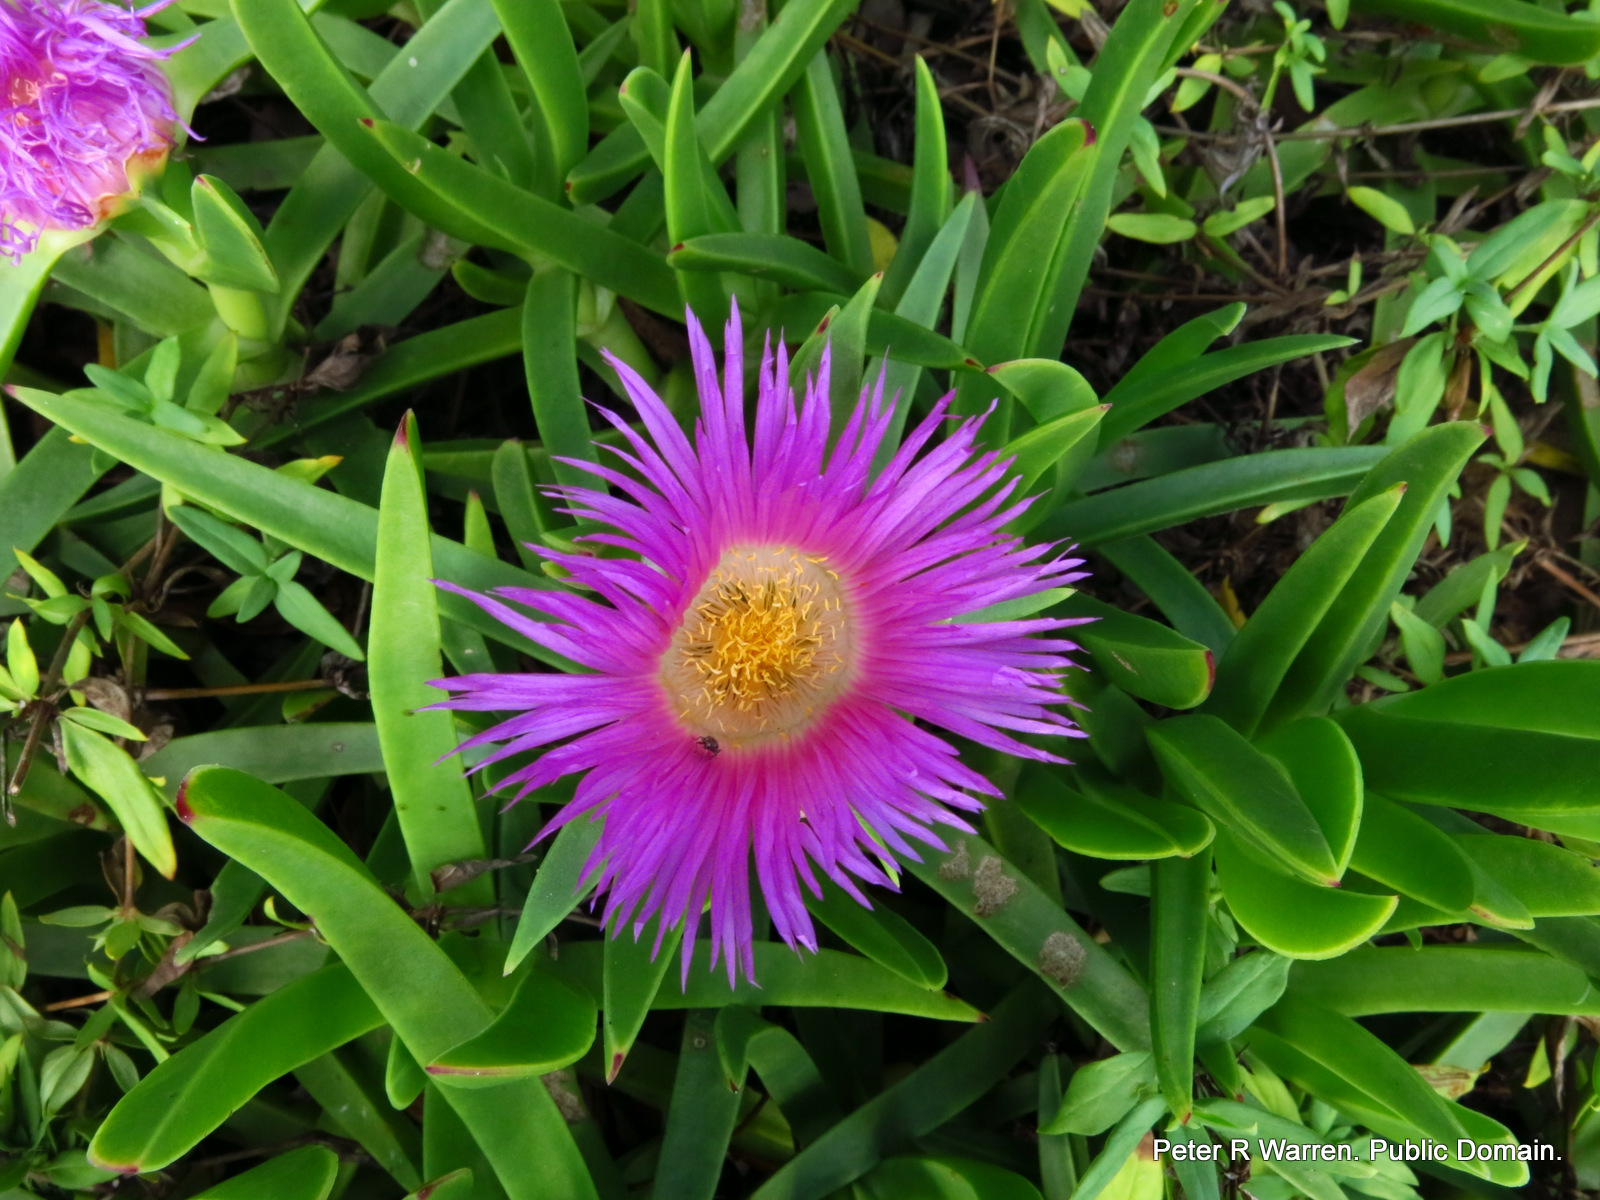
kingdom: Plantae
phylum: Tracheophyta
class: Magnoliopsida
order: Caryophyllales
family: Aizoaceae
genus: Carpobrotus
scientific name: Carpobrotus dimidiatus
